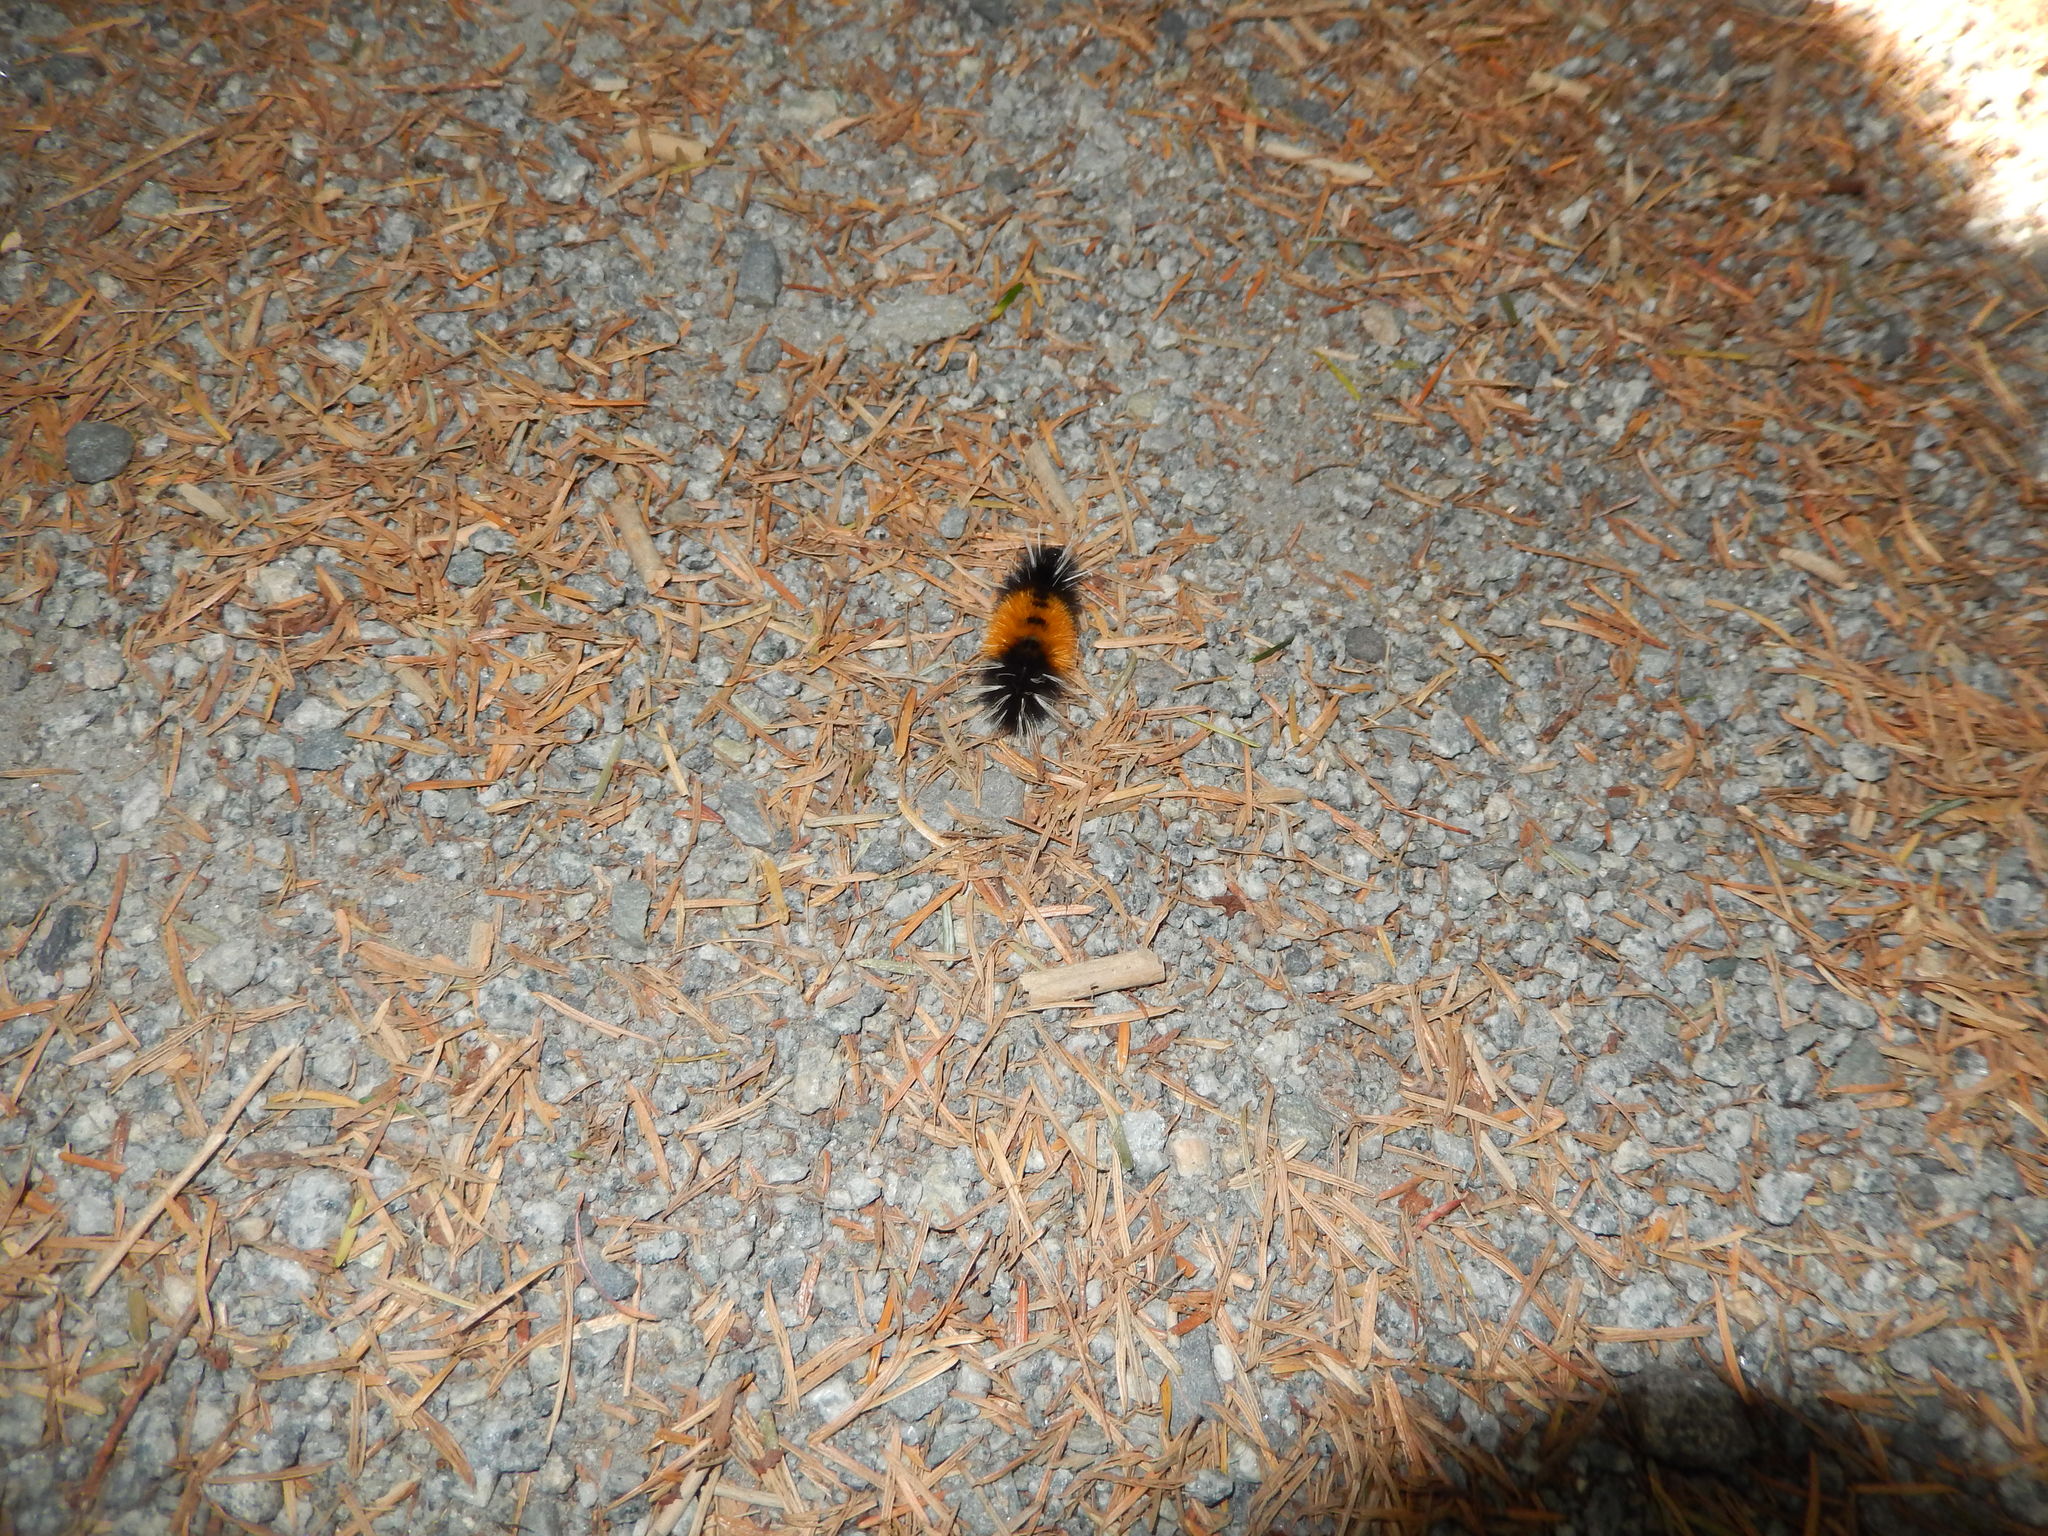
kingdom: Animalia
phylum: Arthropoda
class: Insecta
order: Lepidoptera
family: Erebidae
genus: Lophocampa
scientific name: Lophocampa maculata
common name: Spotted tussock moth
